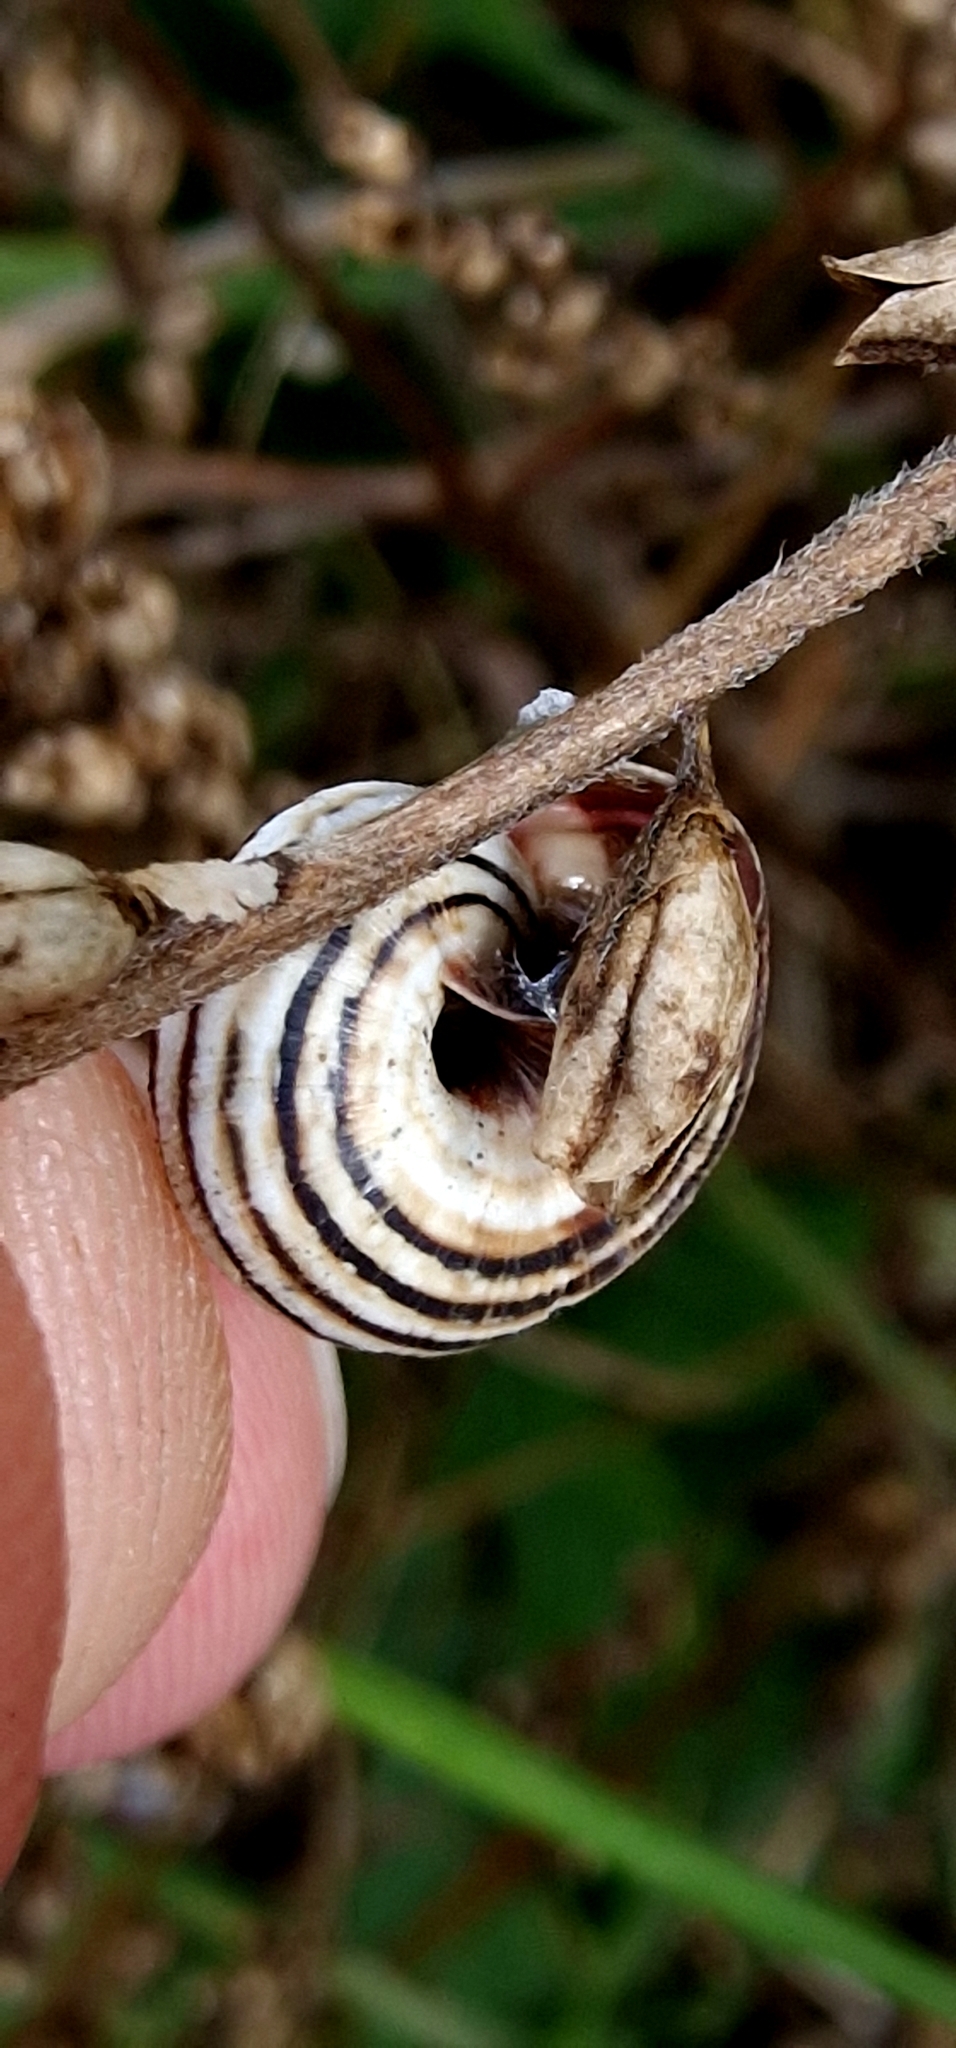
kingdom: Animalia
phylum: Mollusca
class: Gastropoda
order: Stylommatophora
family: Geomitridae
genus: Cernuella
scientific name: Cernuella virgata
